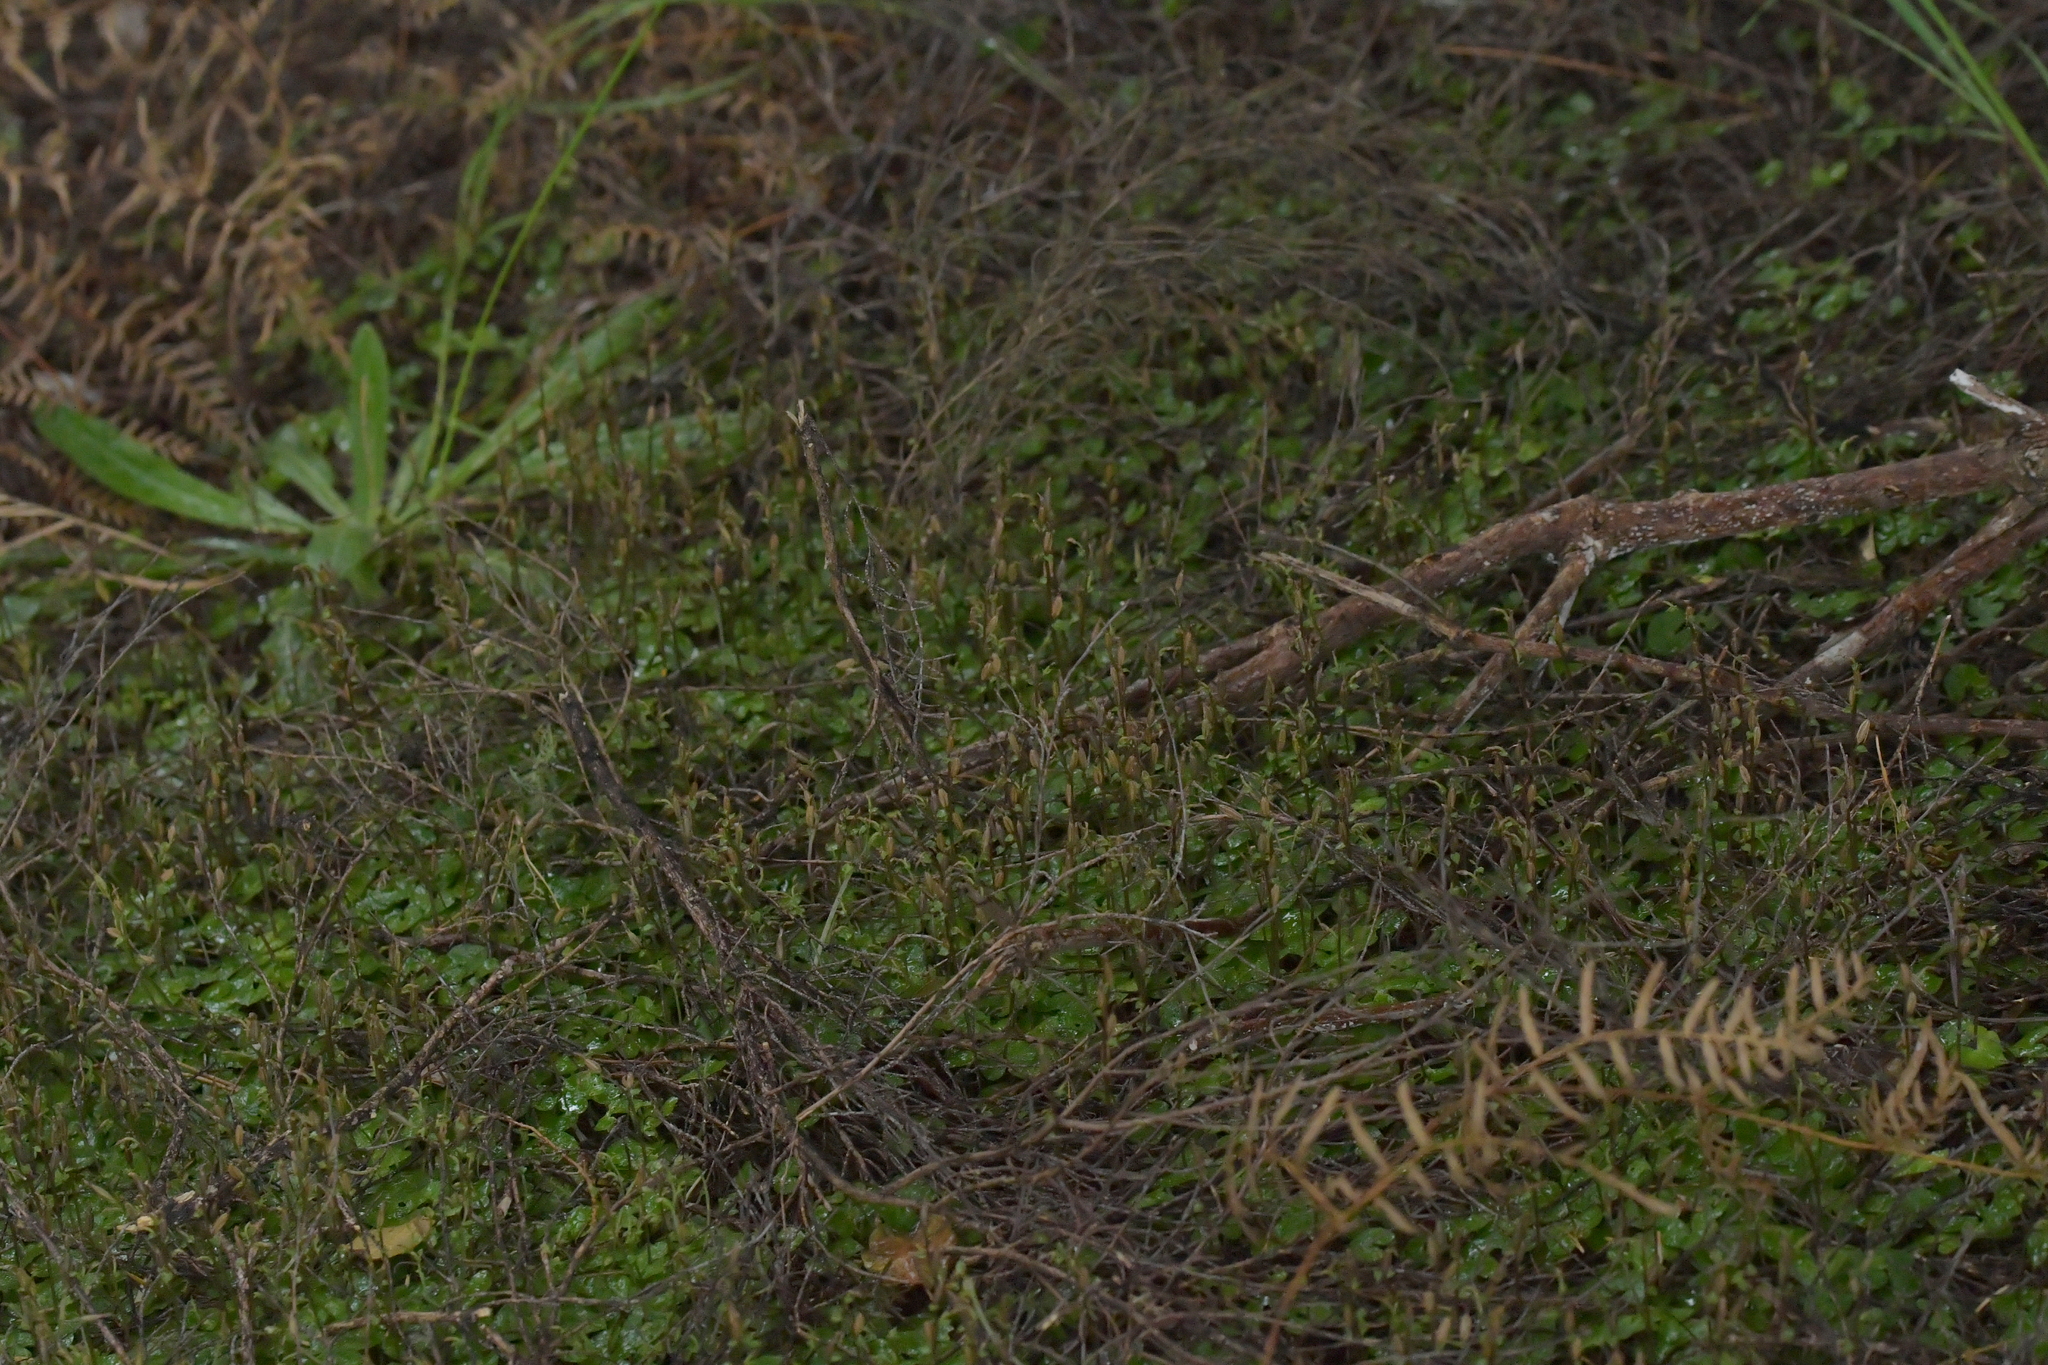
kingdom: Plantae
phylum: Tracheophyta
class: Liliopsida
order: Asparagales
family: Orchidaceae
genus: Acianthus
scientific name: Acianthus sinclairii
